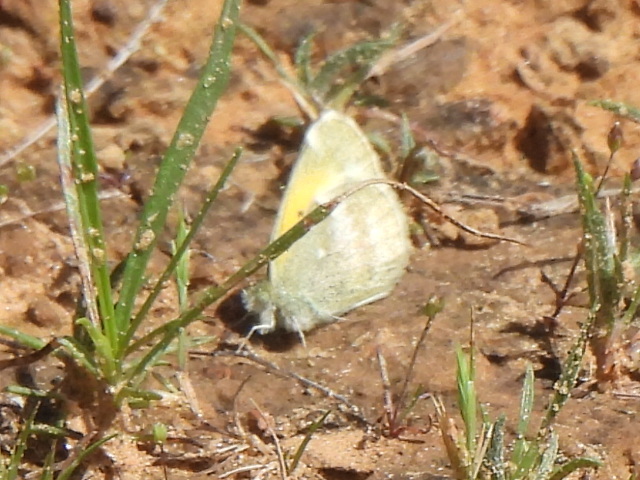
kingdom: Animalia
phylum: Arthropoda
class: Insecta
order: Lepidoptera
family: Pieridae
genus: Nathalis
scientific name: Nathalis iole
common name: Dainty sulphur
